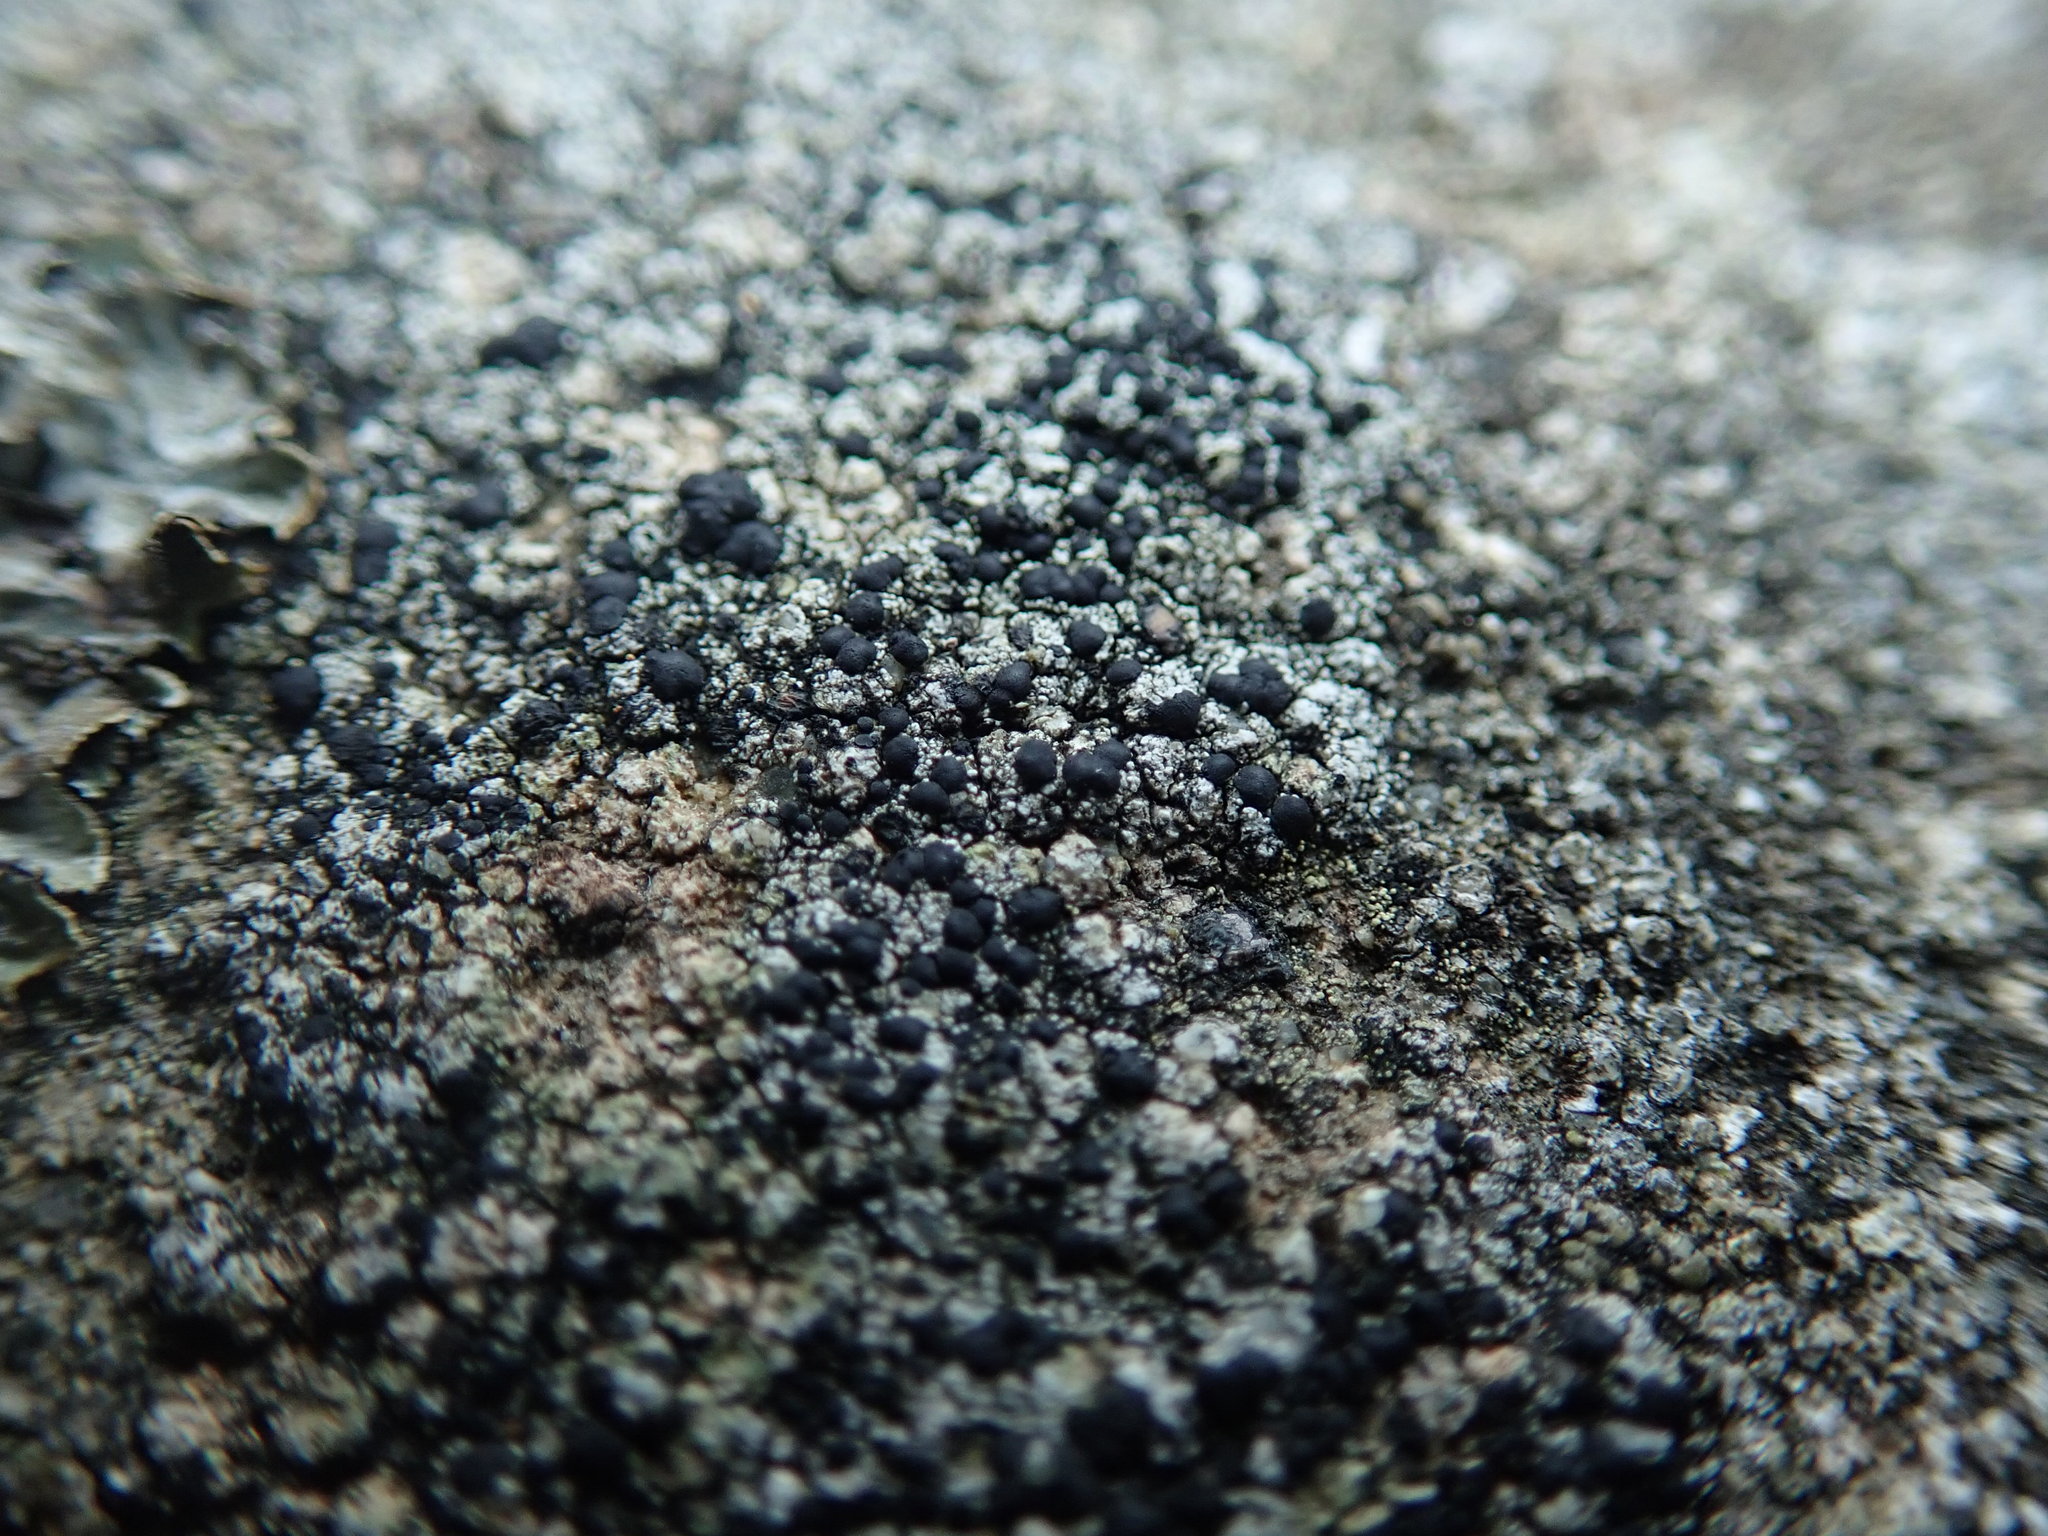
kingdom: Fungi
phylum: Ascomycota
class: Lecanoromycetes
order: Lecanorales
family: Lecanoraceae
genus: Lecidella
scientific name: Lecidella asema
